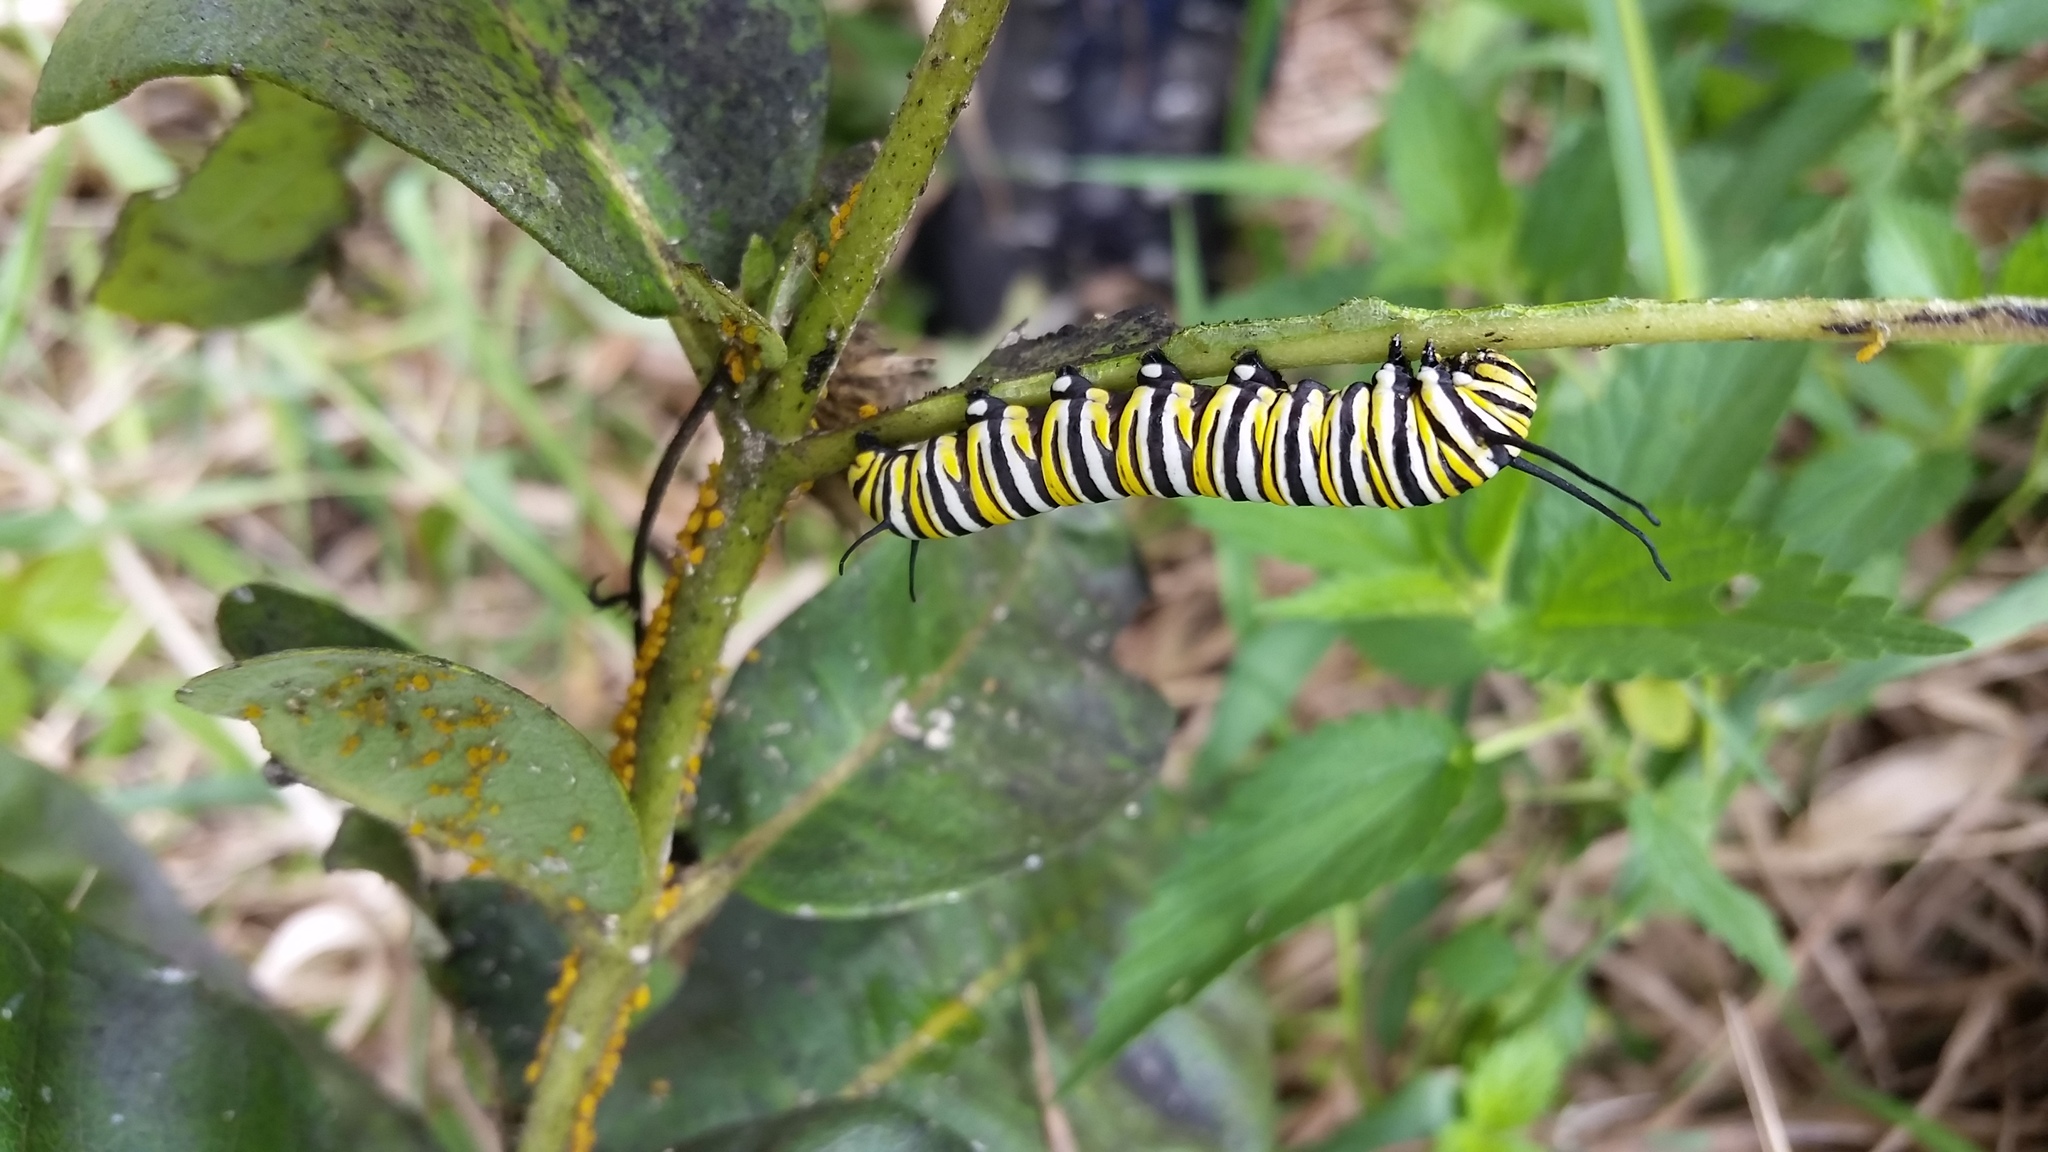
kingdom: Animalia
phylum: Arthropoda
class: Insecta
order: Lepidoptera
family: Nymphalidae
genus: Danaus
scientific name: Danaus plexippus
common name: Monarch
